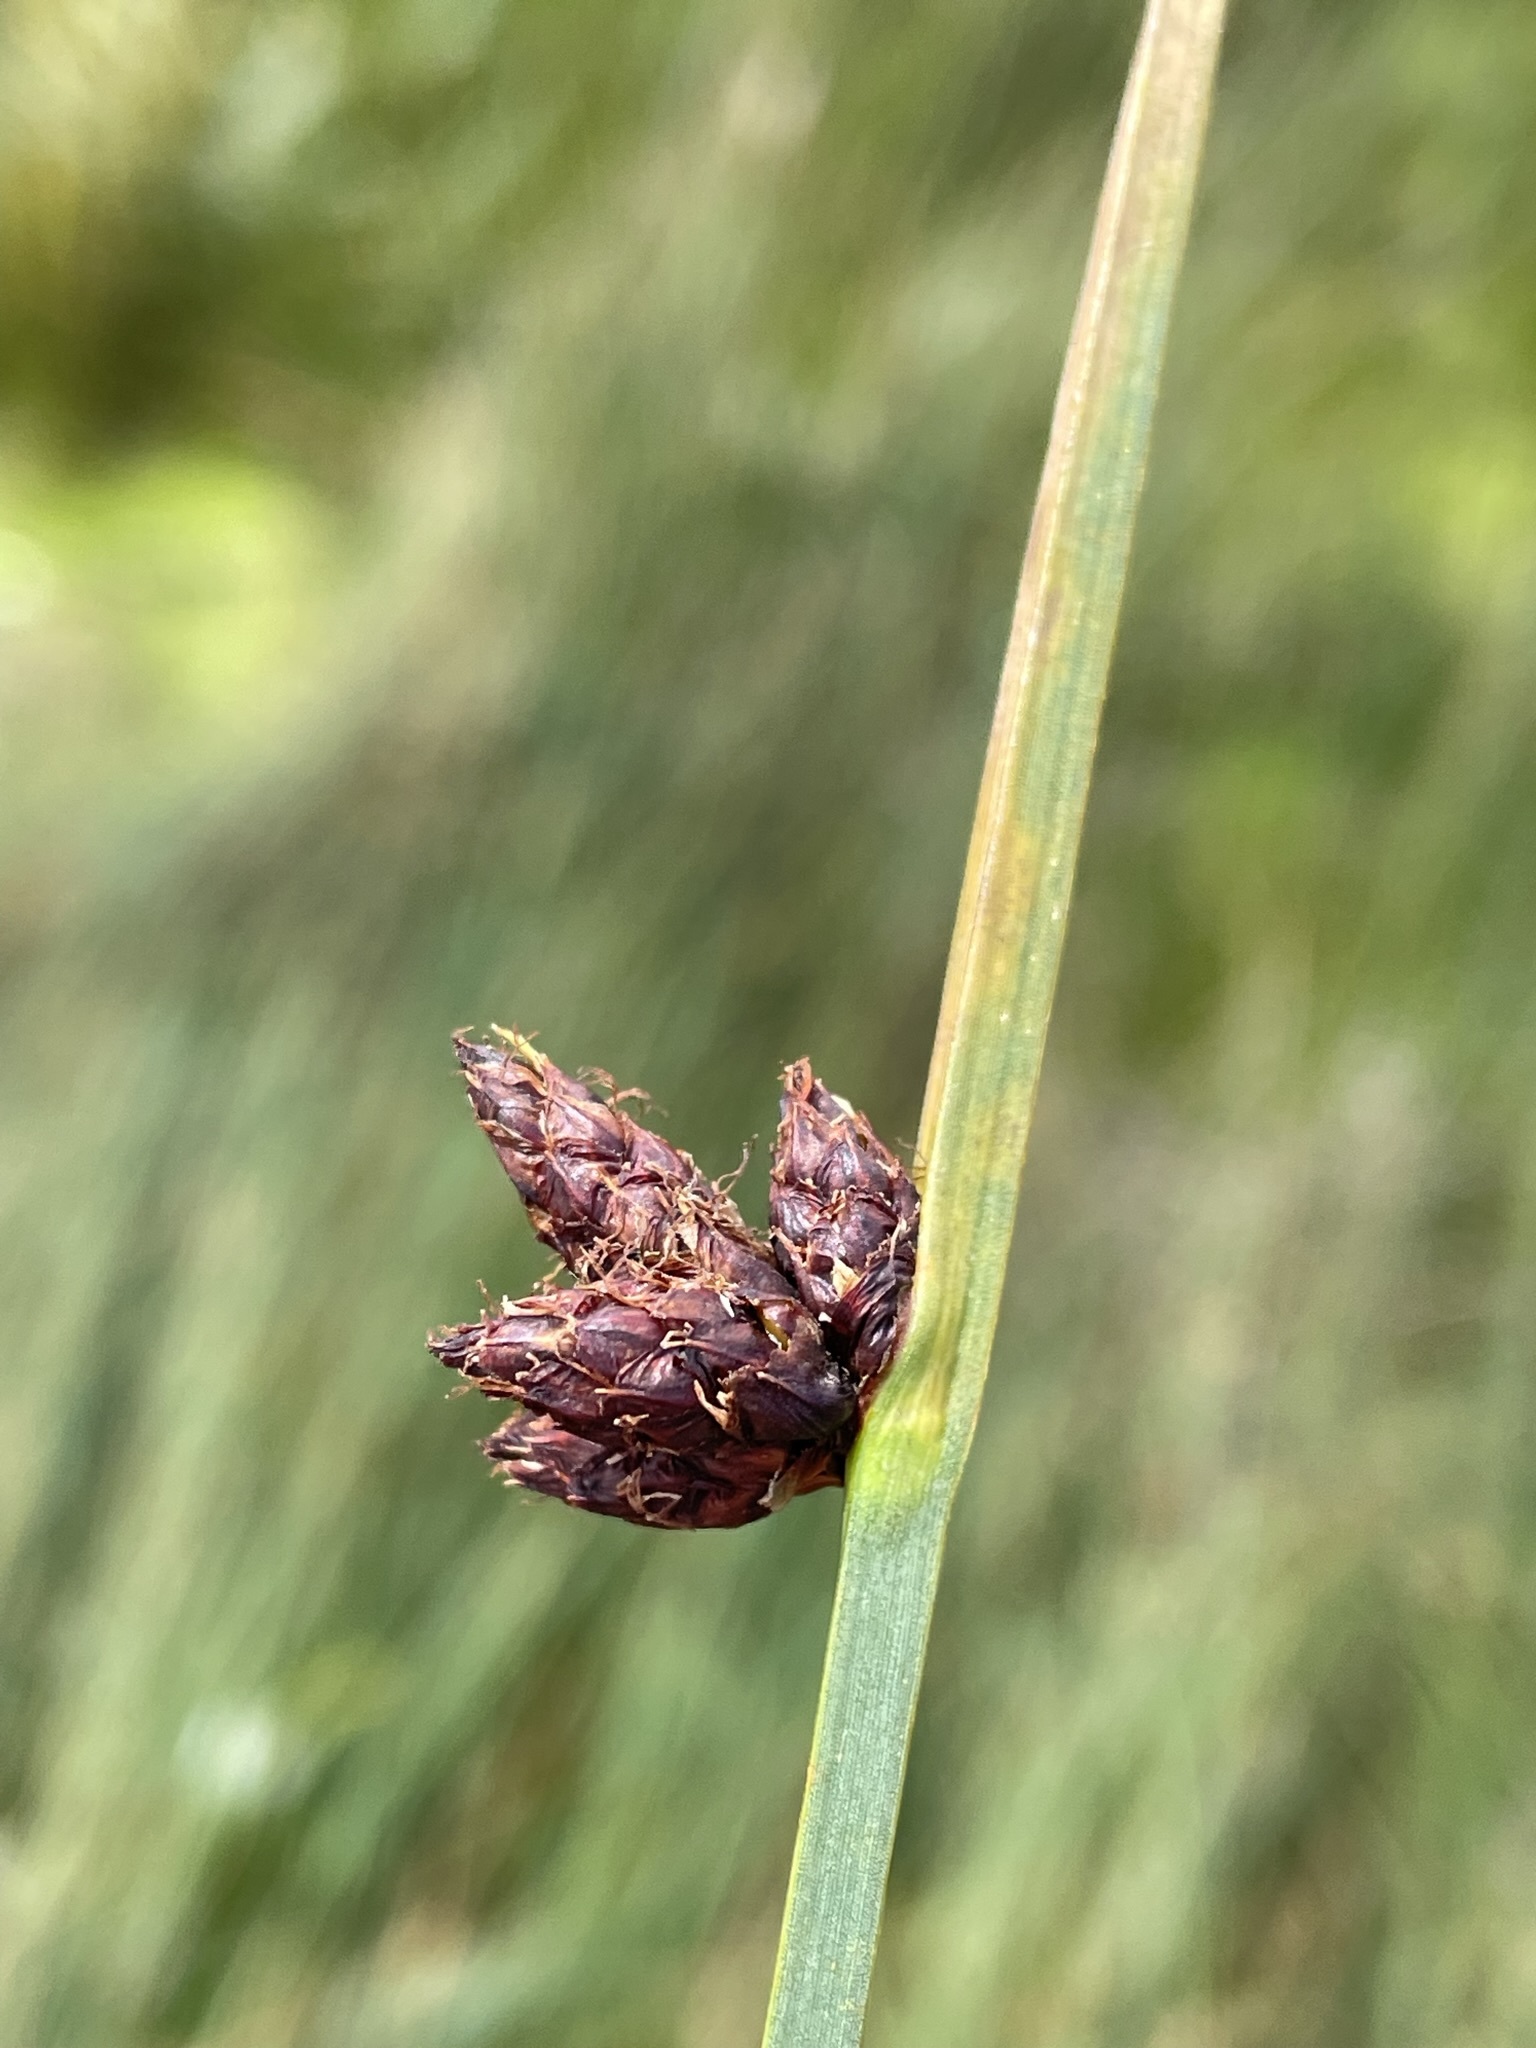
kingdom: Plantae
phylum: Tracheophyta
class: Liliopsida
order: Poales
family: Cyperaceae
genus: Schoenoplectus
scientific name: Schoenoplectus pungens
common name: Sharp club-rush
